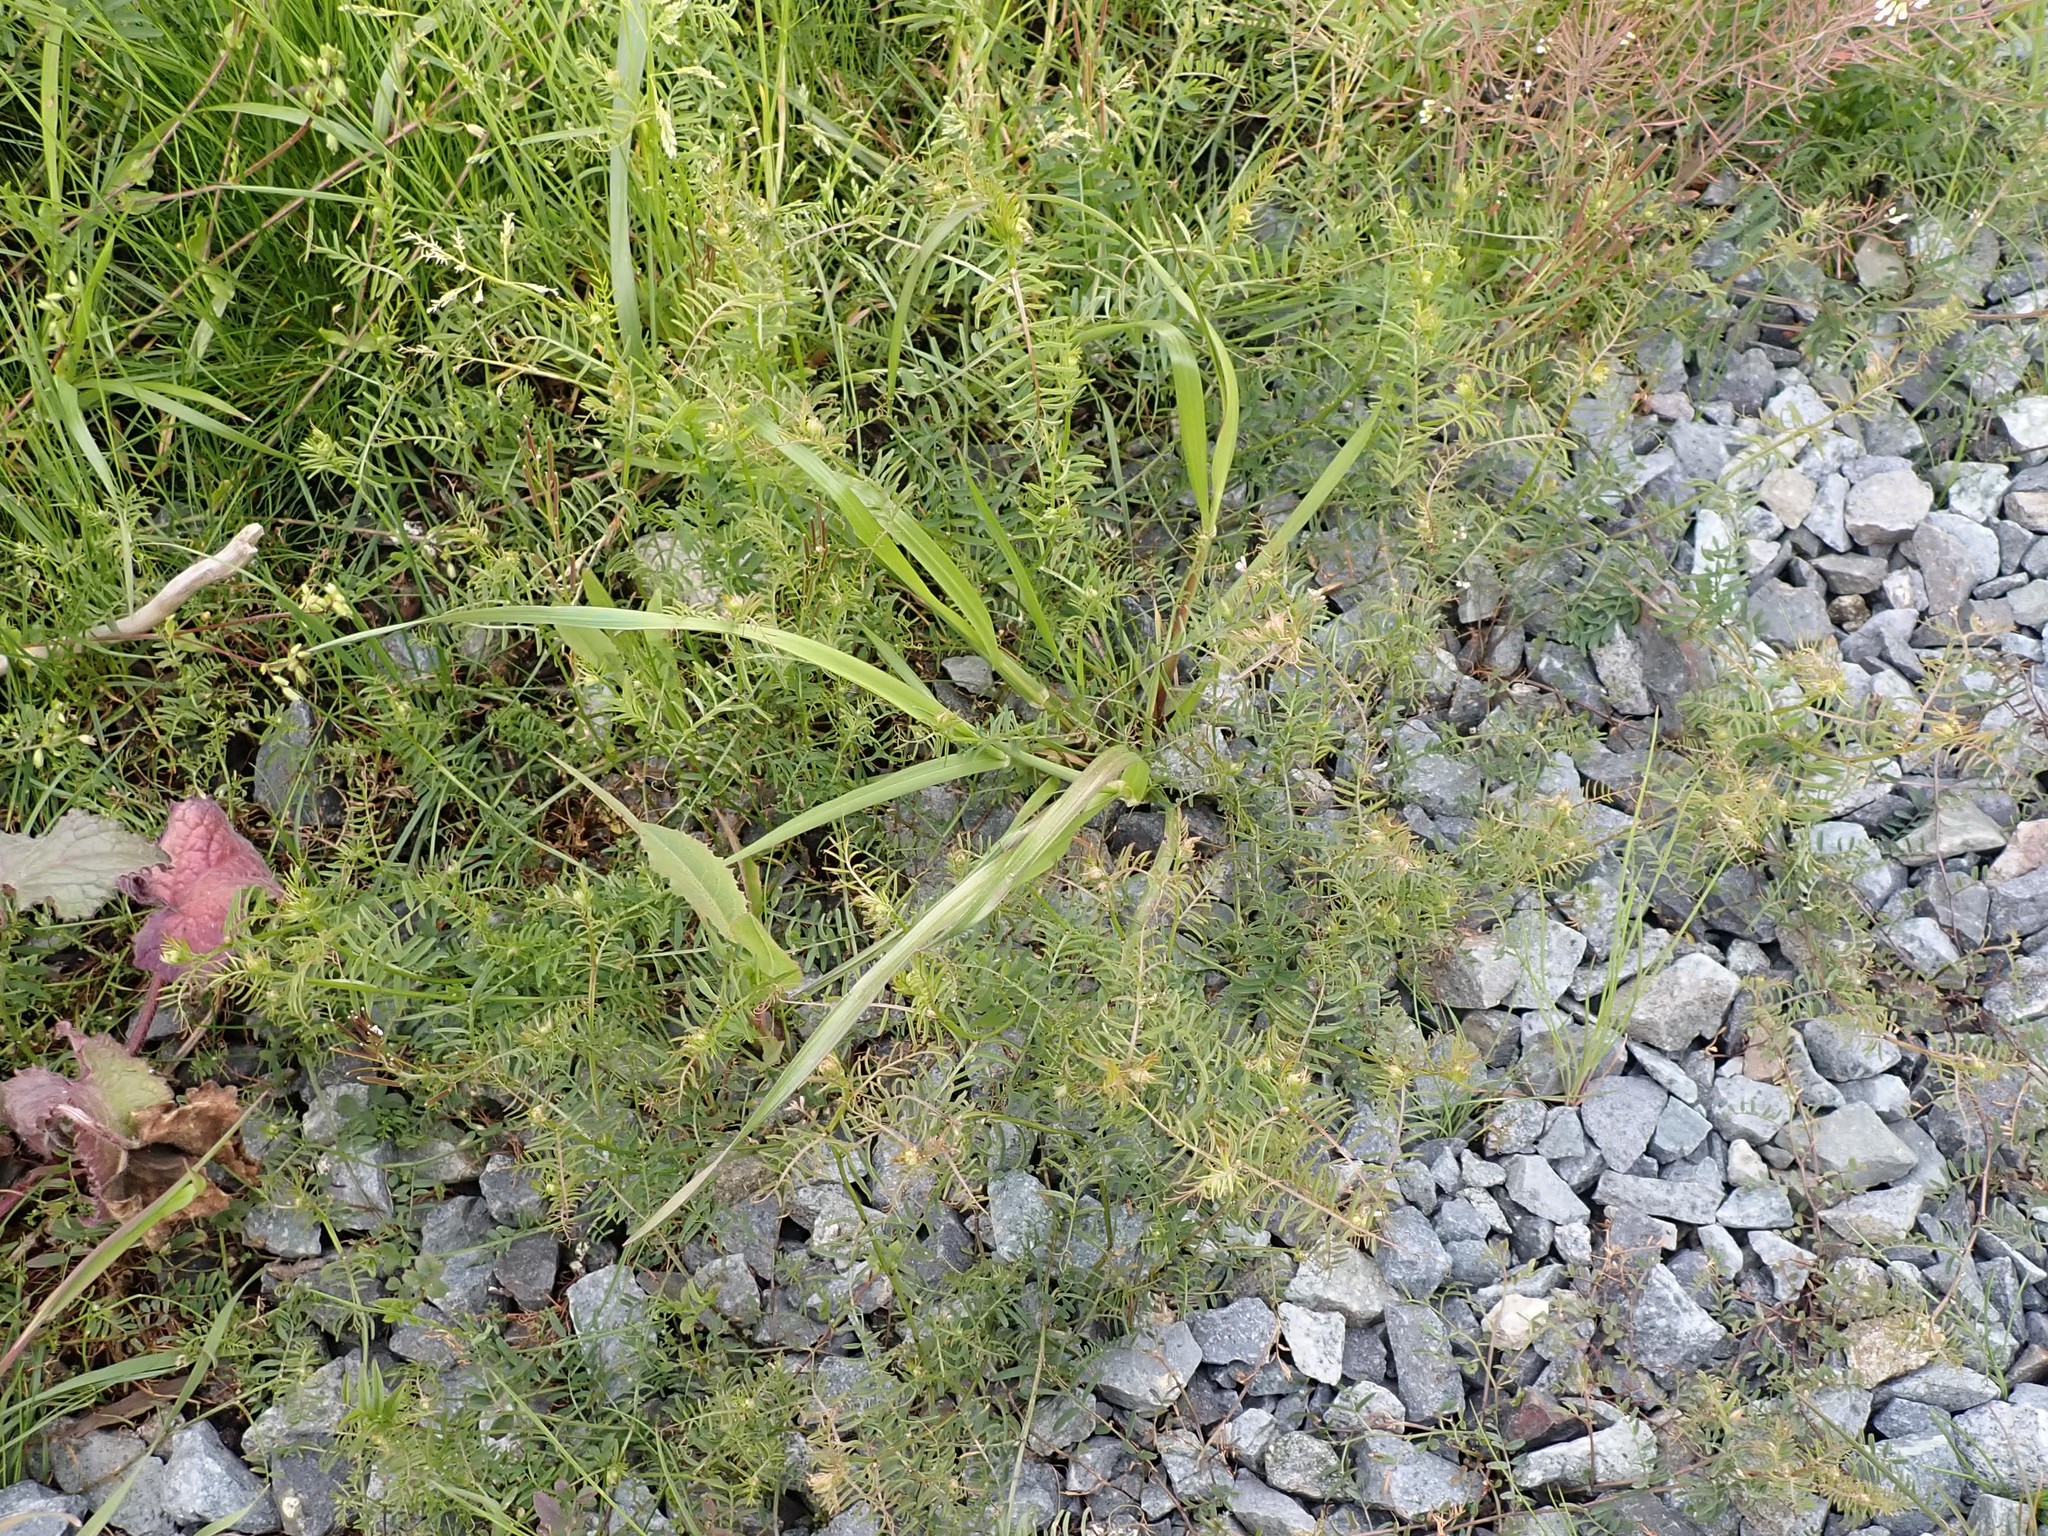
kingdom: Plantae
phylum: Tracheophyta
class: Magnoliopsida
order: Fabales
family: Fabaceae
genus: Vicia
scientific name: Vicia hirsuta
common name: Tiny vetch
